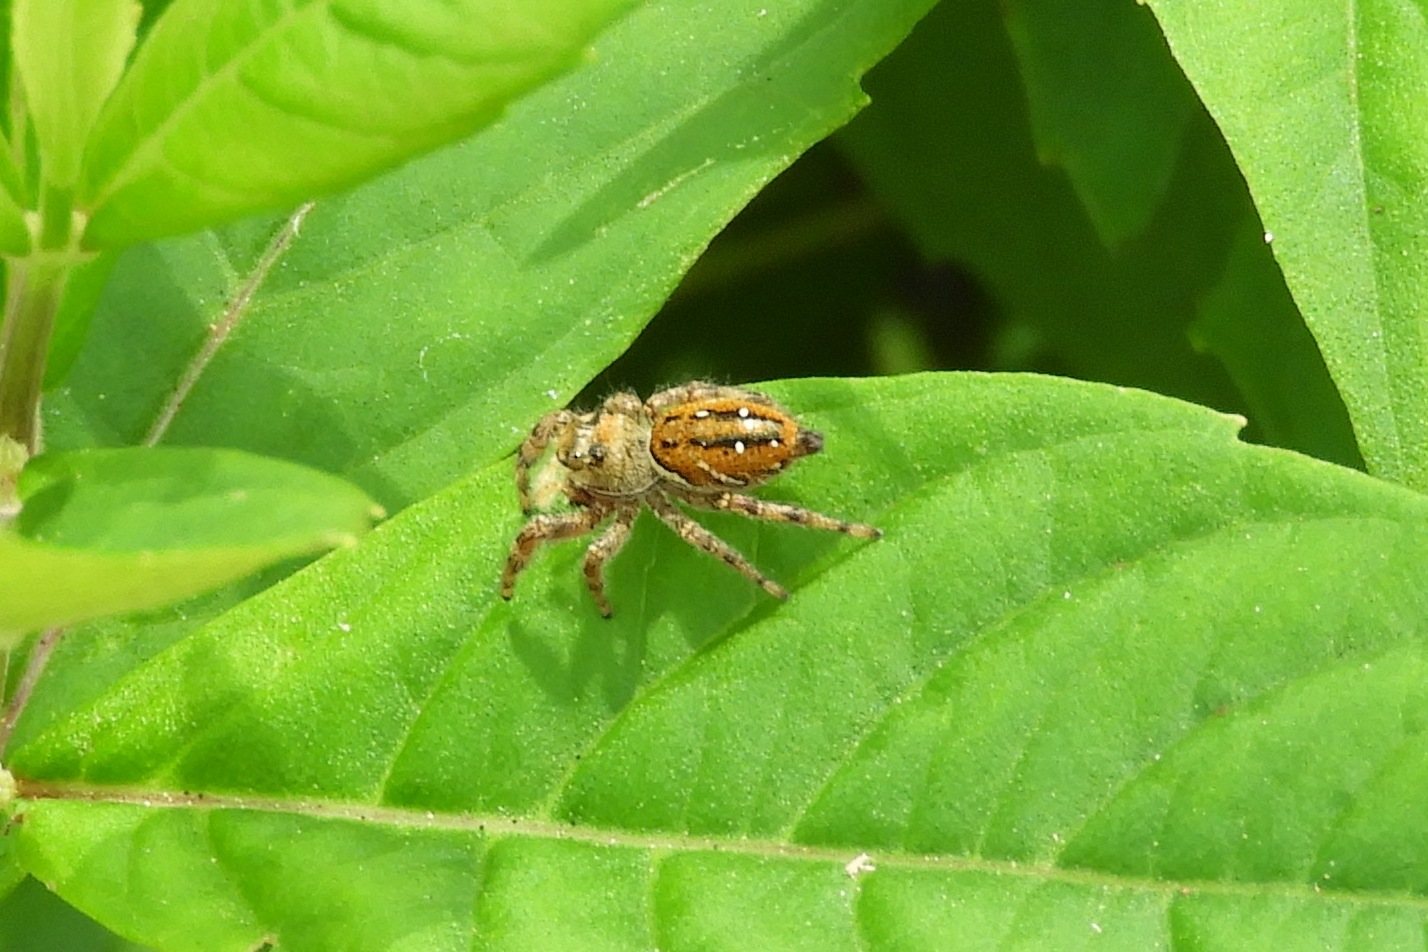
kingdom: Animalia
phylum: Arthropoda
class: Arachnida
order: Araneae
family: Salticidae
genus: Phidippus
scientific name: Phidippus clarus
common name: Brilliant jumping spider
